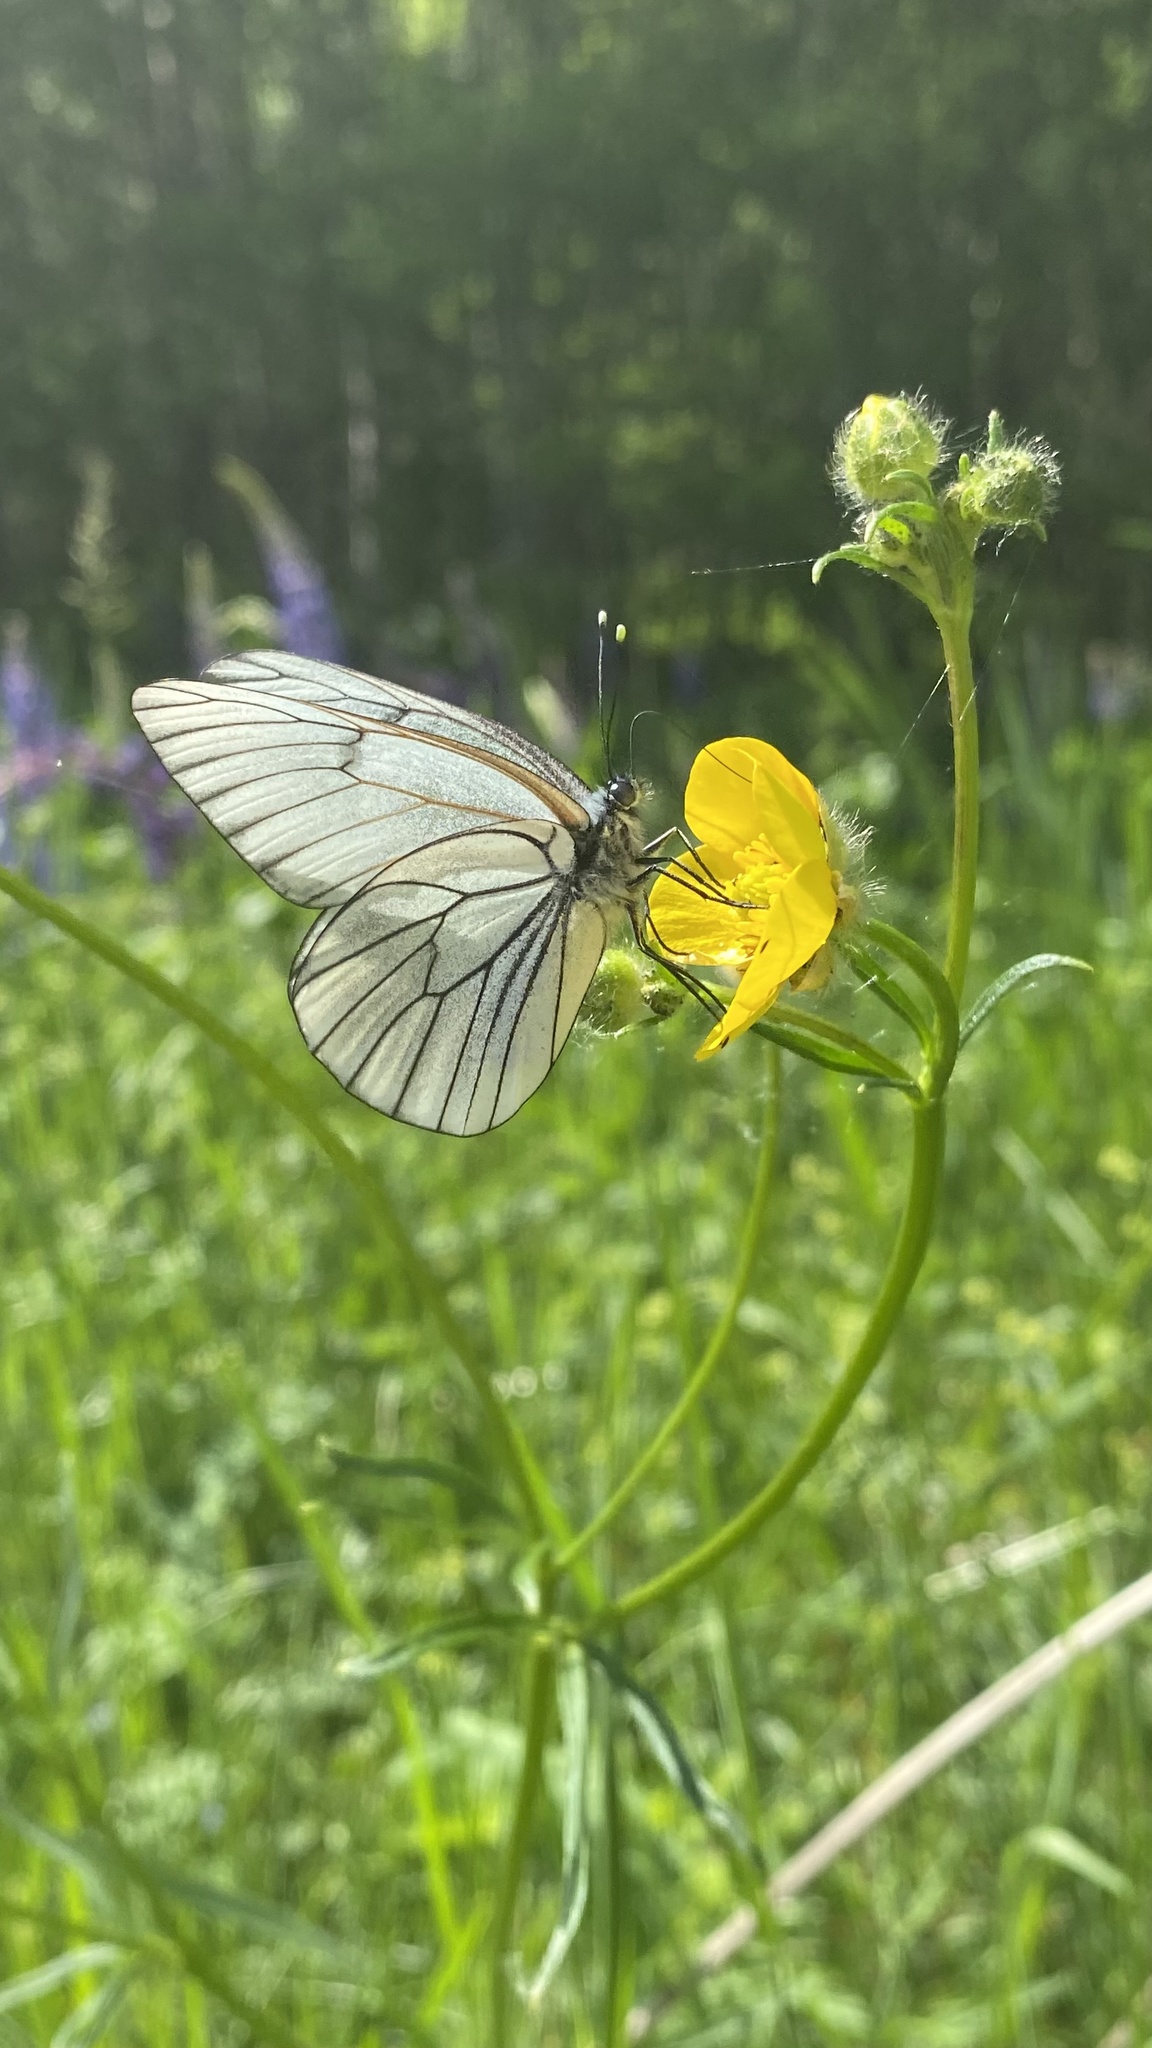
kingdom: Animalia
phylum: Arthropoda
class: Insecta
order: Lepidoptera
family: Pieridae
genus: Aporia
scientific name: Aporia crataegi
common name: Black-veined white
